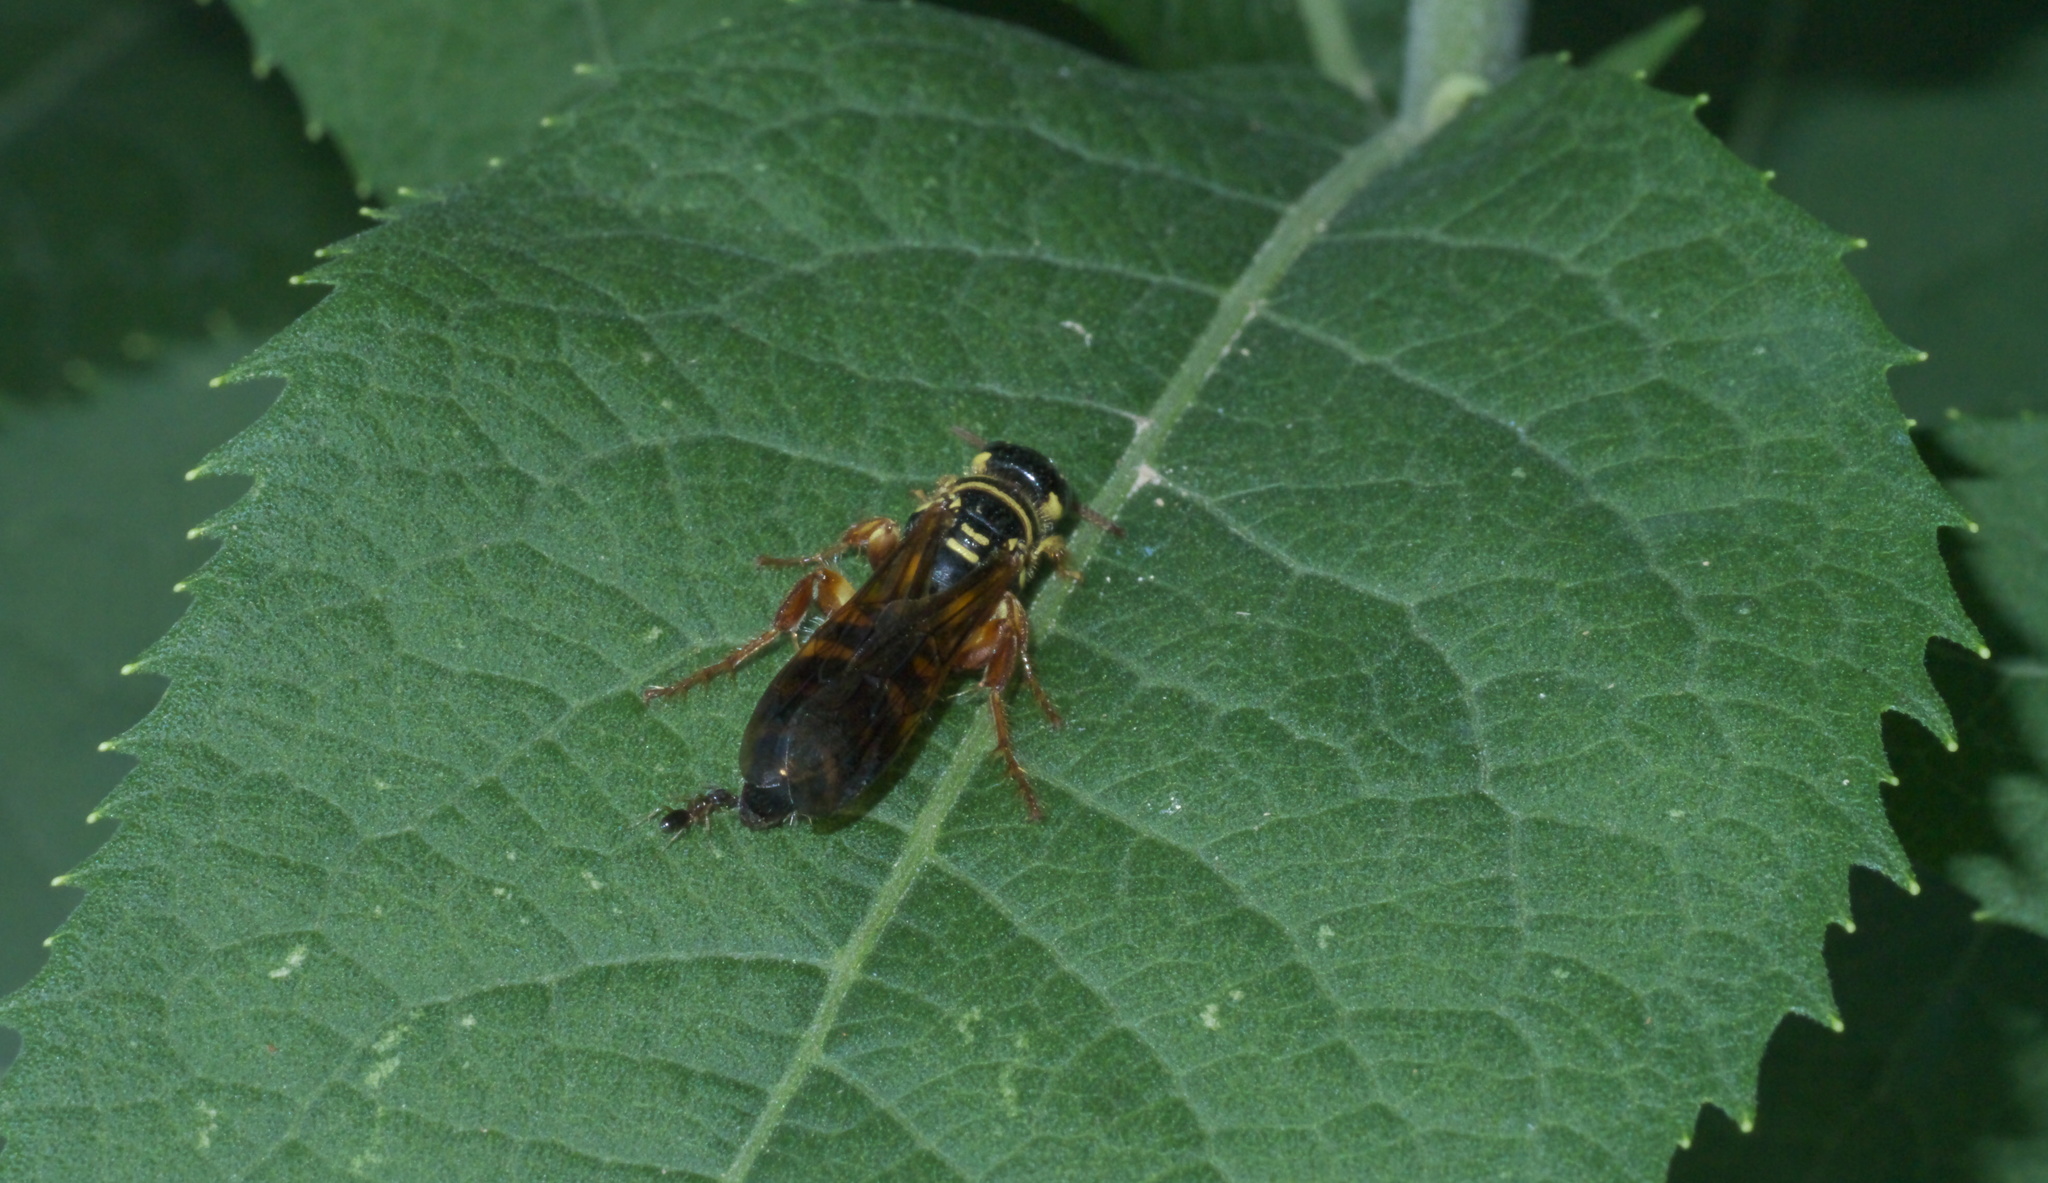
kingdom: Animalia
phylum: Arthropoda
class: Insecta
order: Hymenoptera
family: Tiphiidae
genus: Myzinum
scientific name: Myzinum quinquecinctum
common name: Five-banded thynnid wasp
